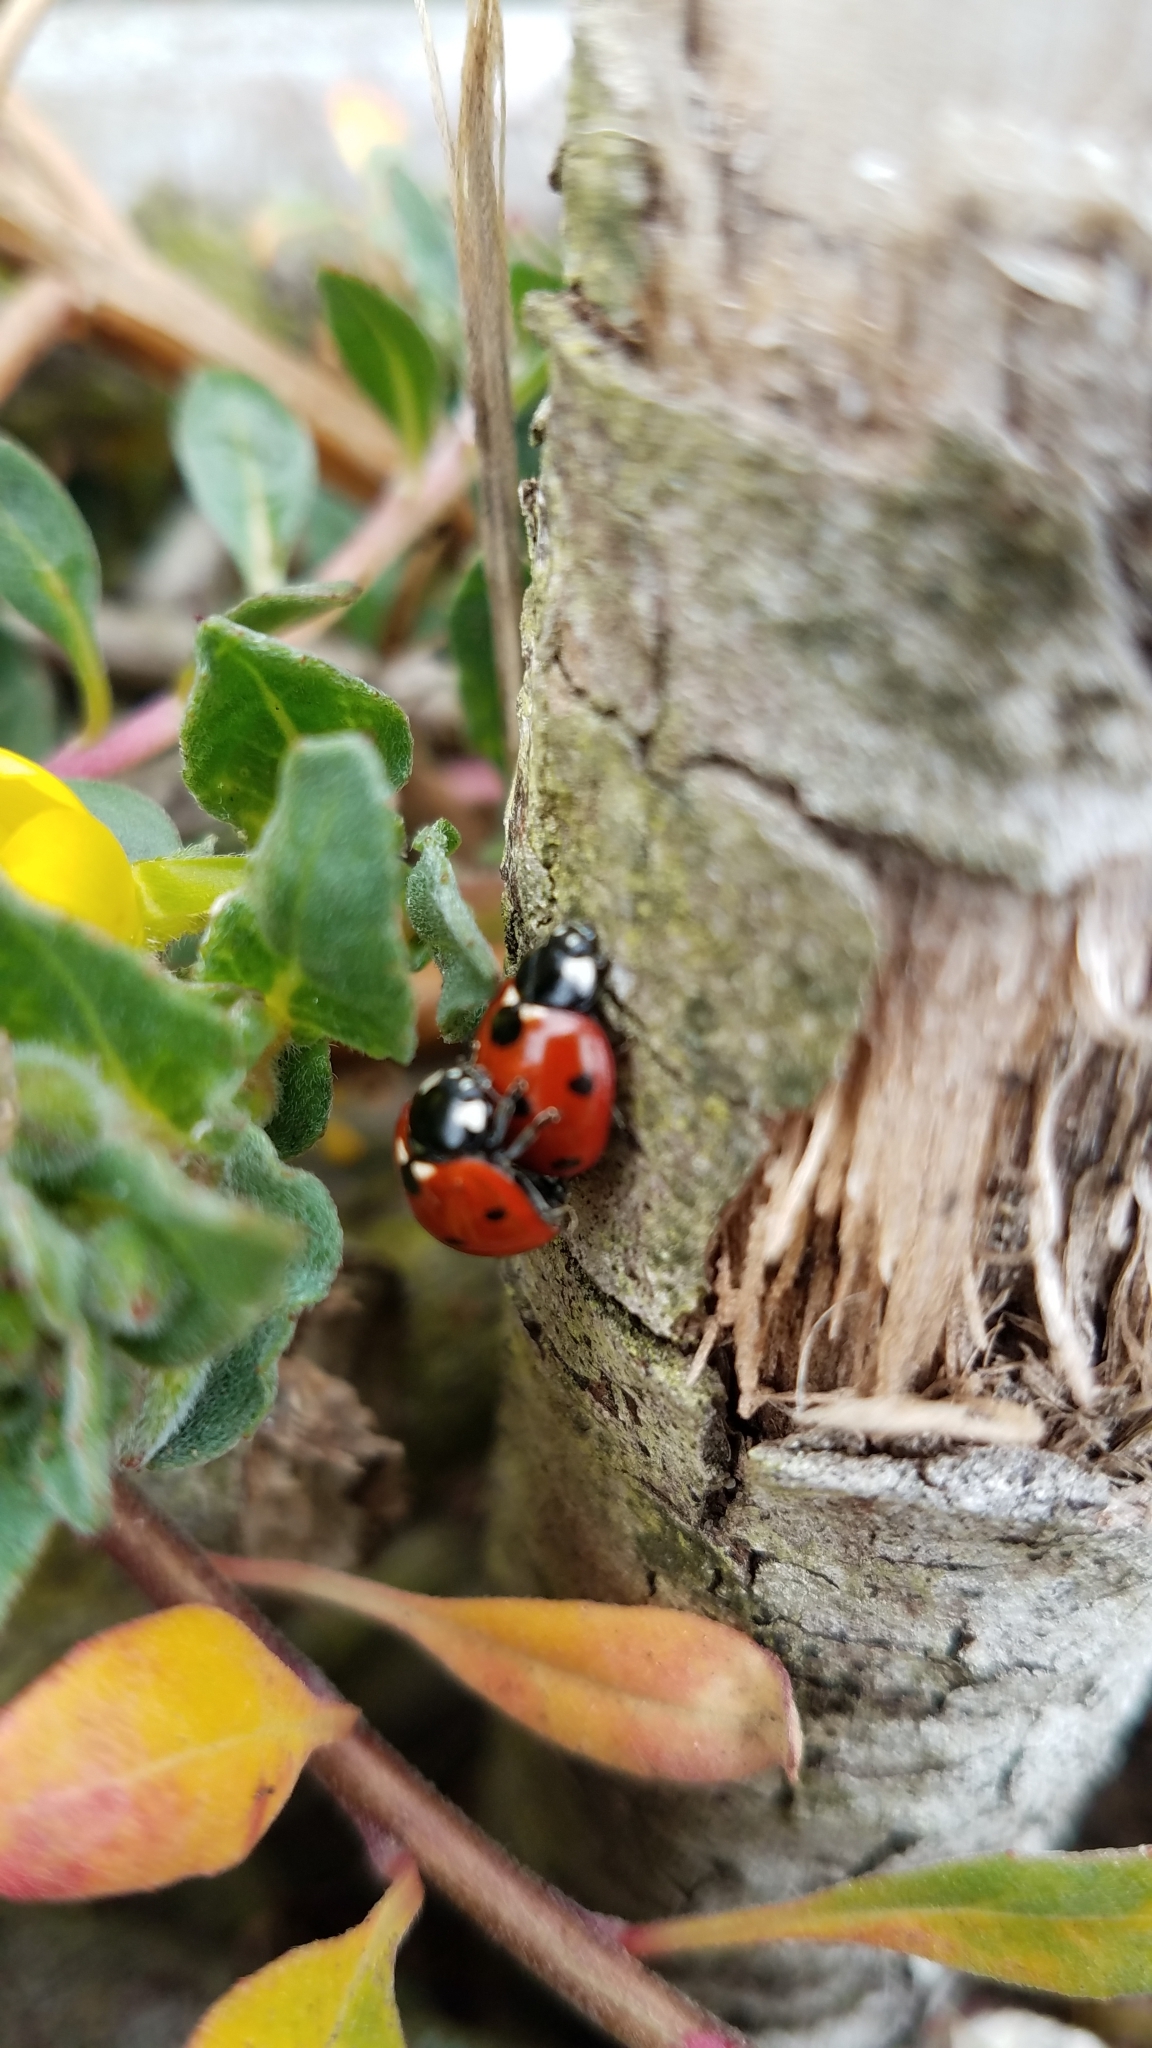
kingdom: Animalia
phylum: Arthropoda
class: Insecta
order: Coleoptera
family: Coccinellidae
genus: Coccinella
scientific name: Coccinella septempunctata
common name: Sevenspotted lady beetle
